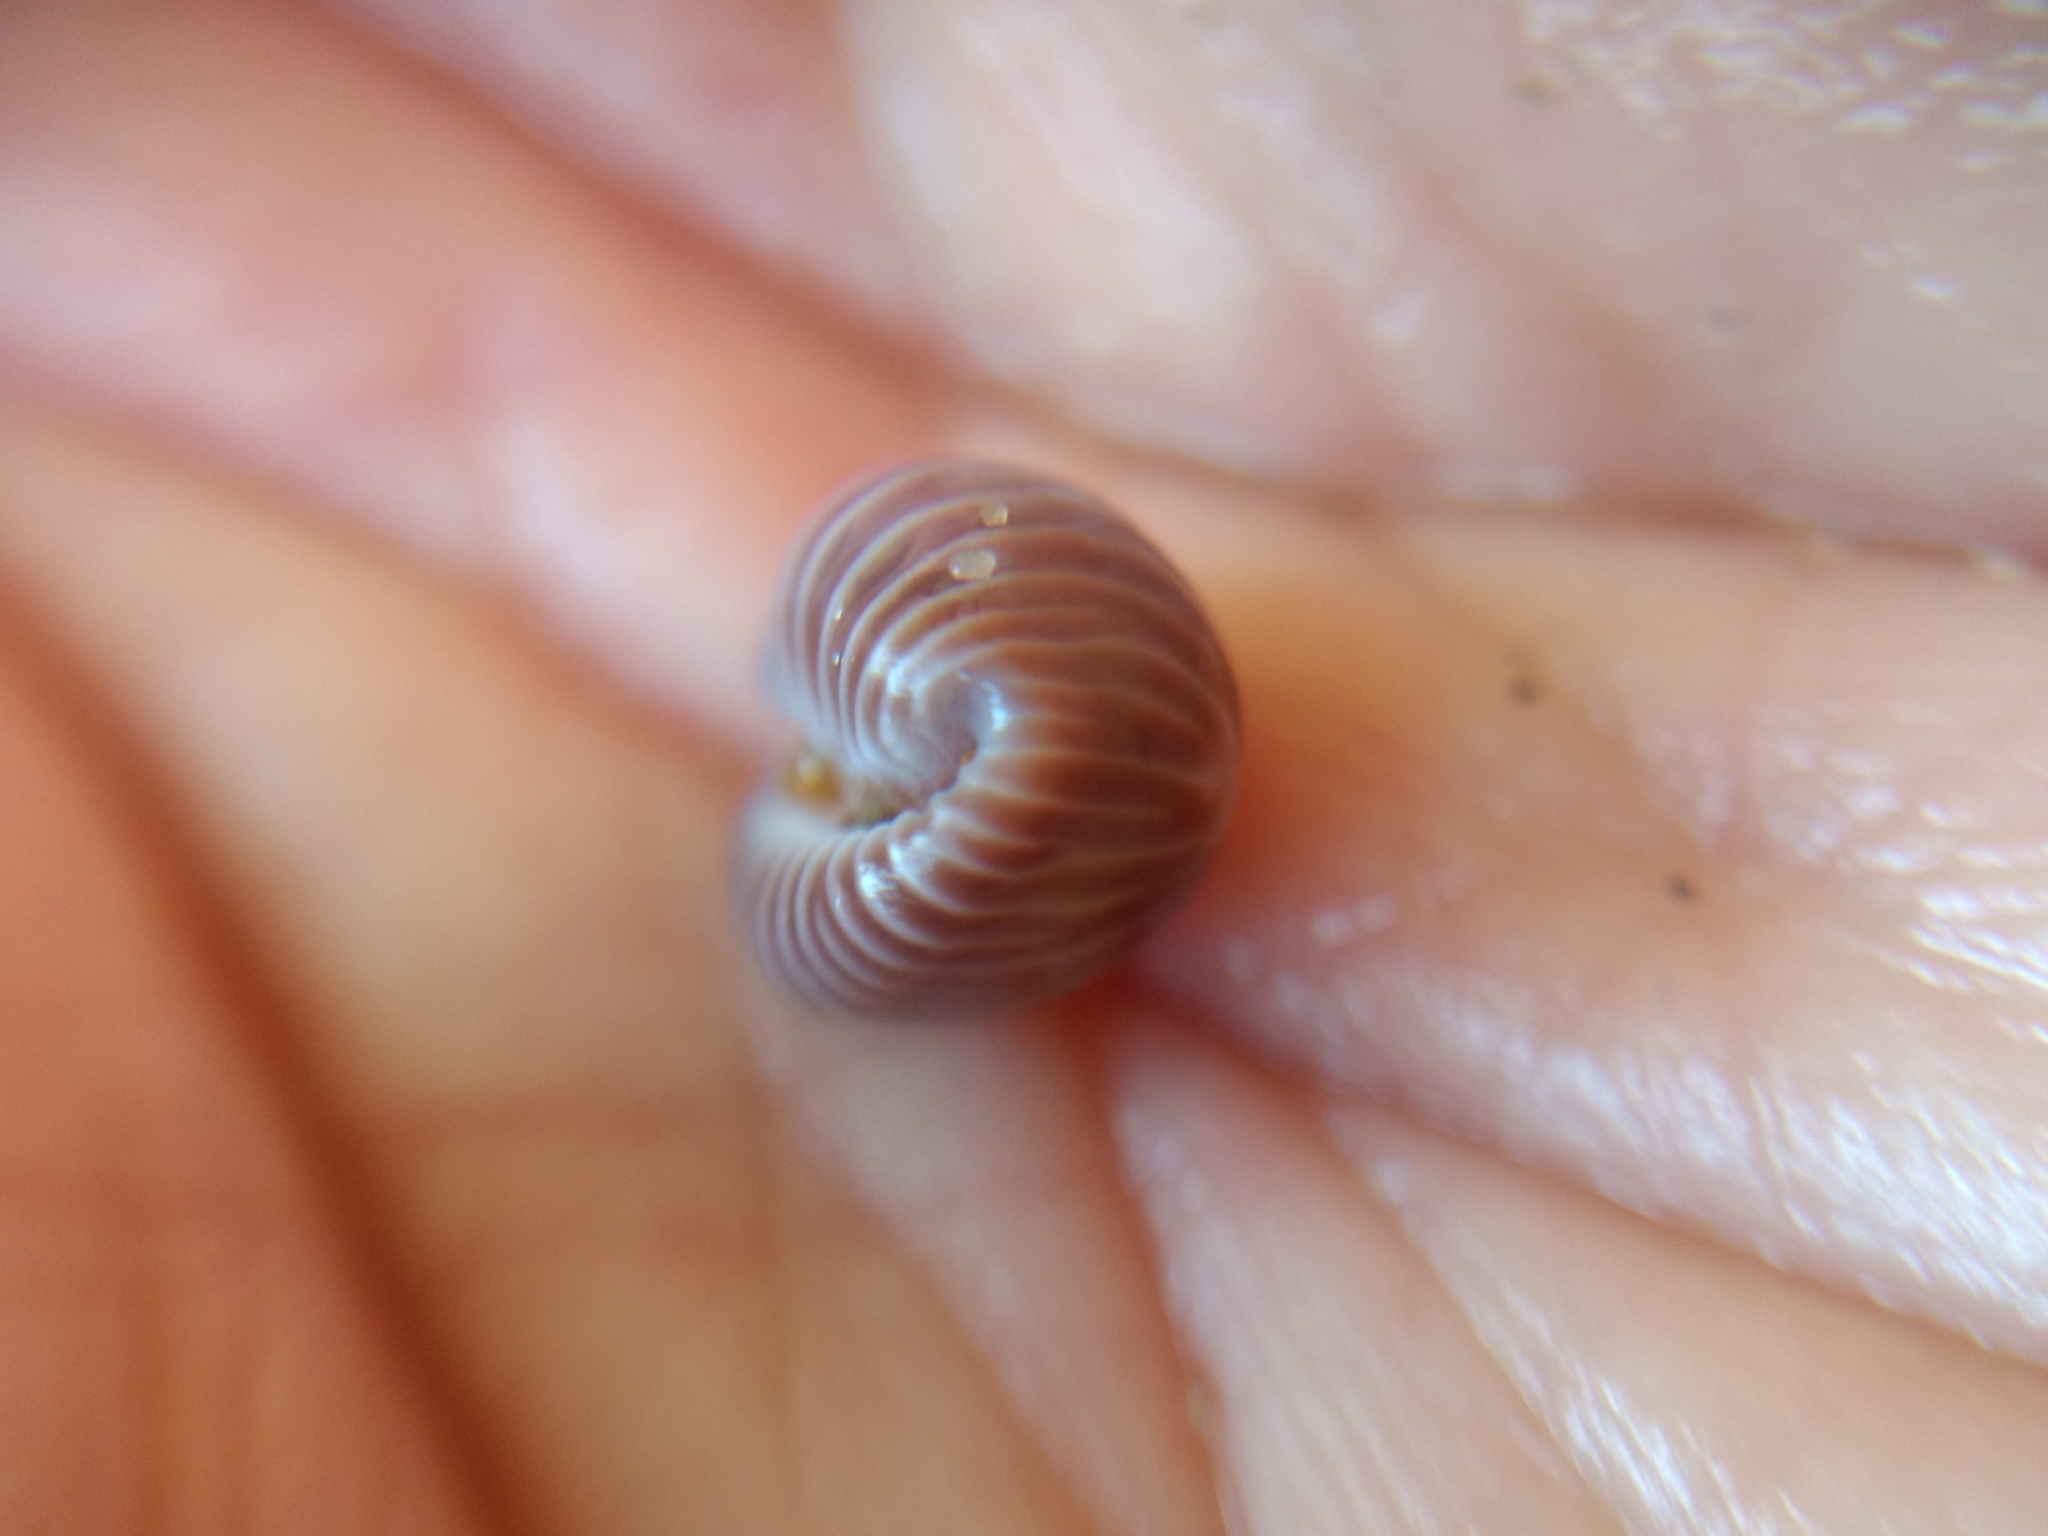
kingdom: Animalia
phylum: Mollusca
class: Gastropoda
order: Littorinimorpha
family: Triviidae
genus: Pseudopusula
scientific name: Pseudopusula californiana
